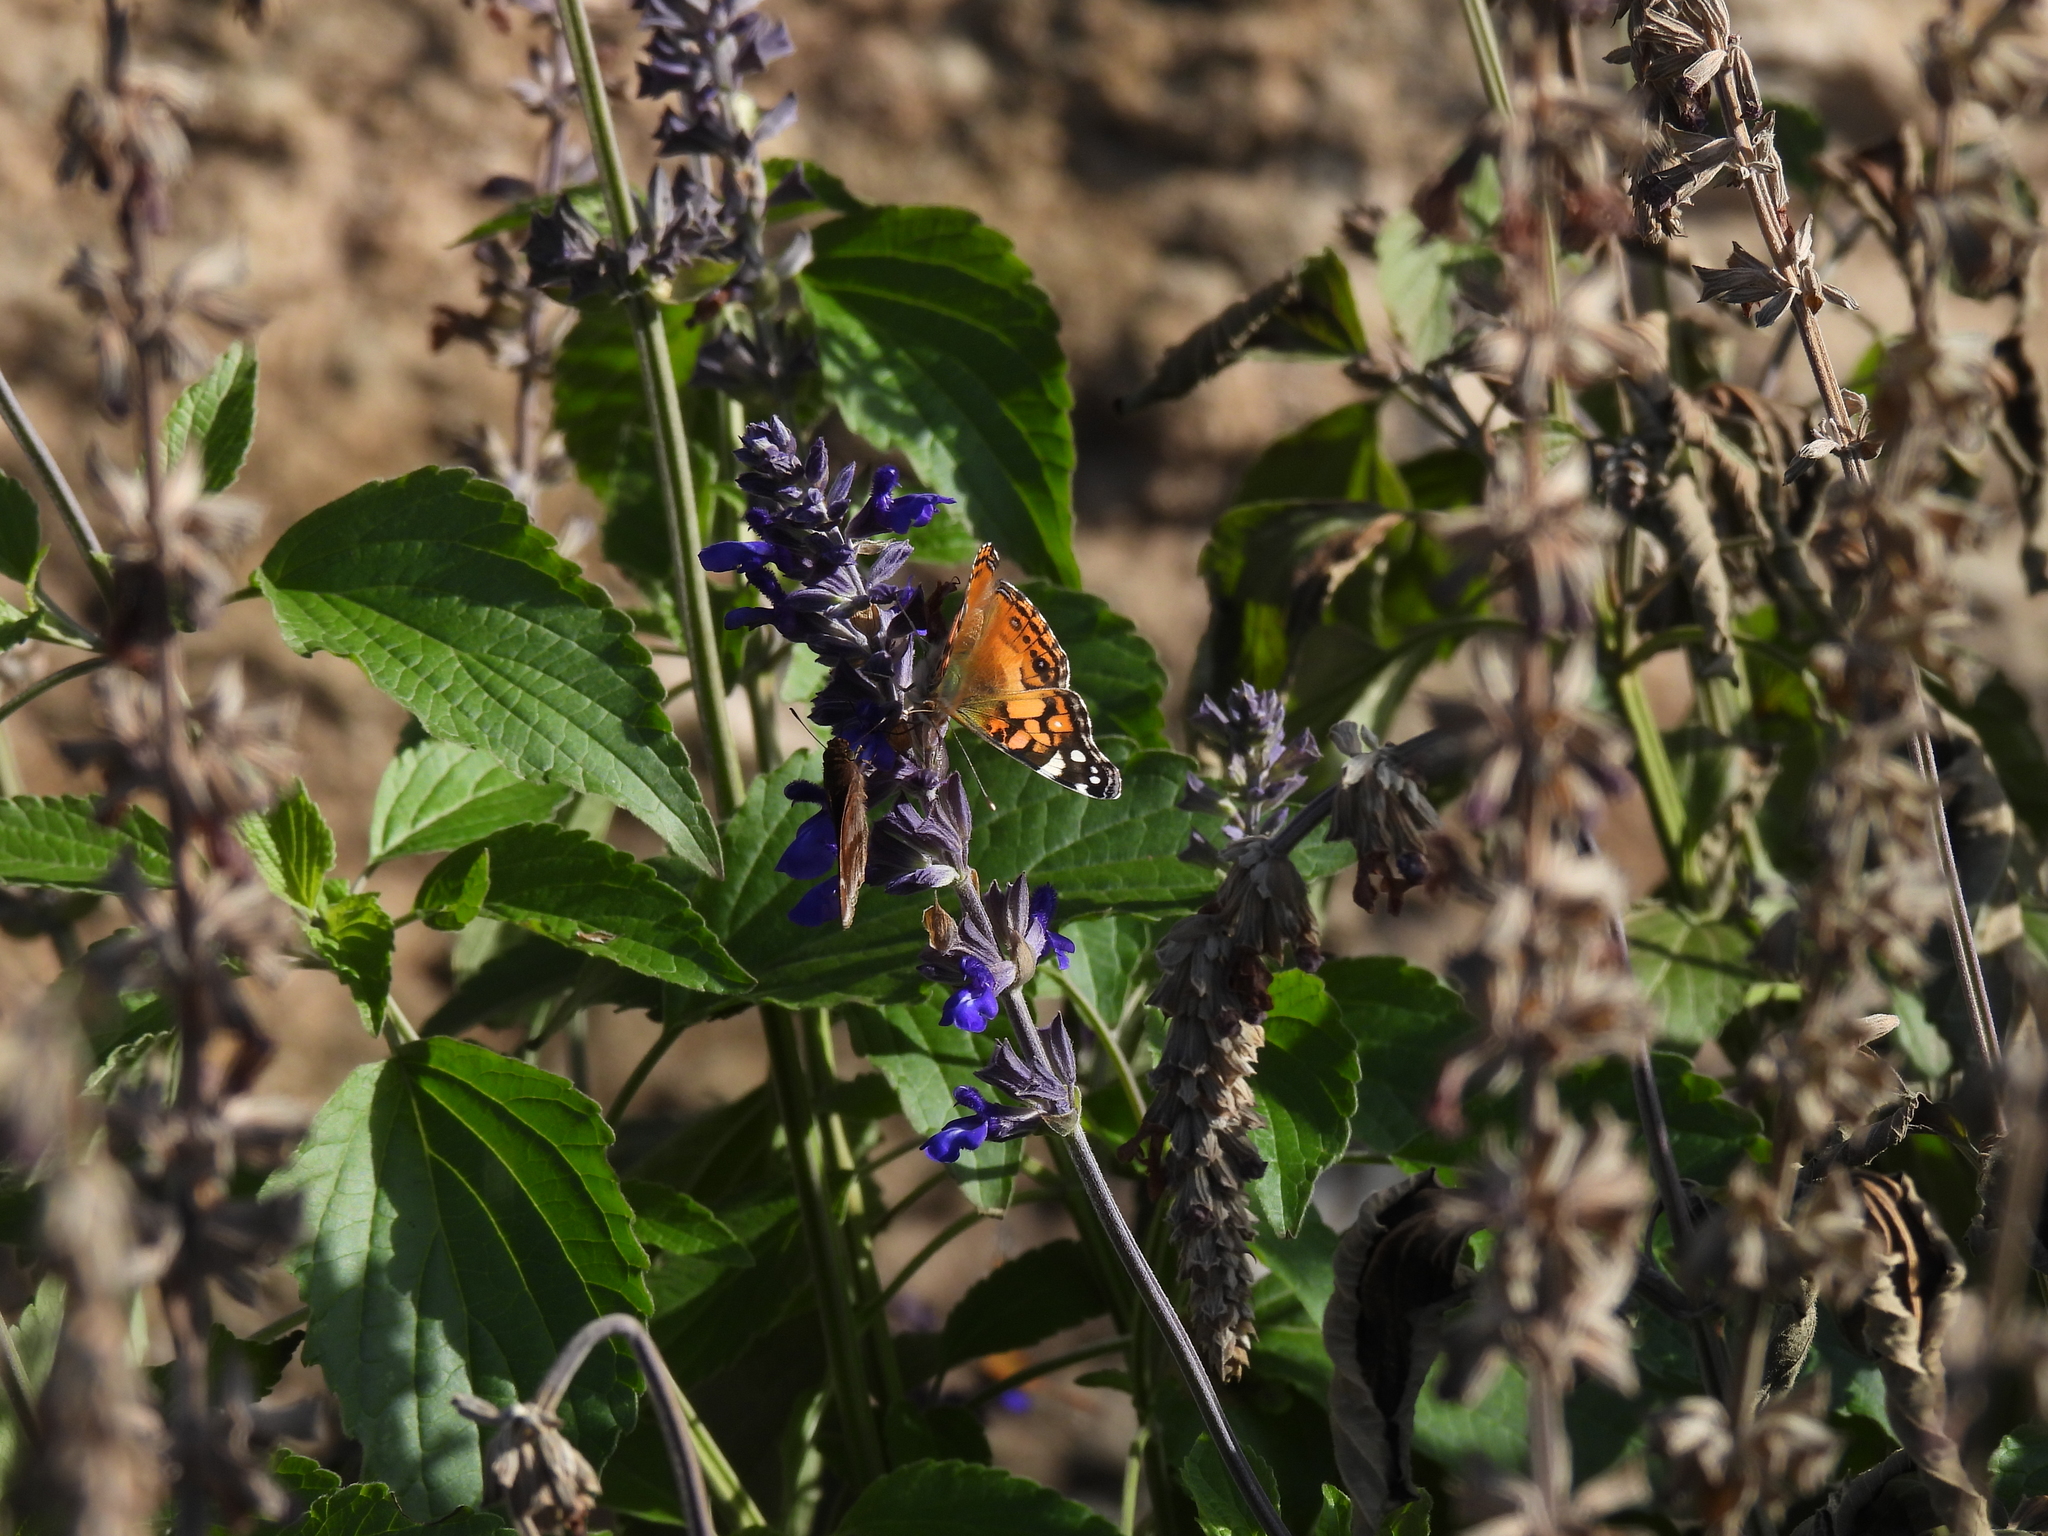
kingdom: Animalia
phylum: Arthropoda
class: Insecta
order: Lepidoptera
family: Nymphalidae
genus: Vanessa
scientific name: Vanessa virginiensis
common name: American lady
